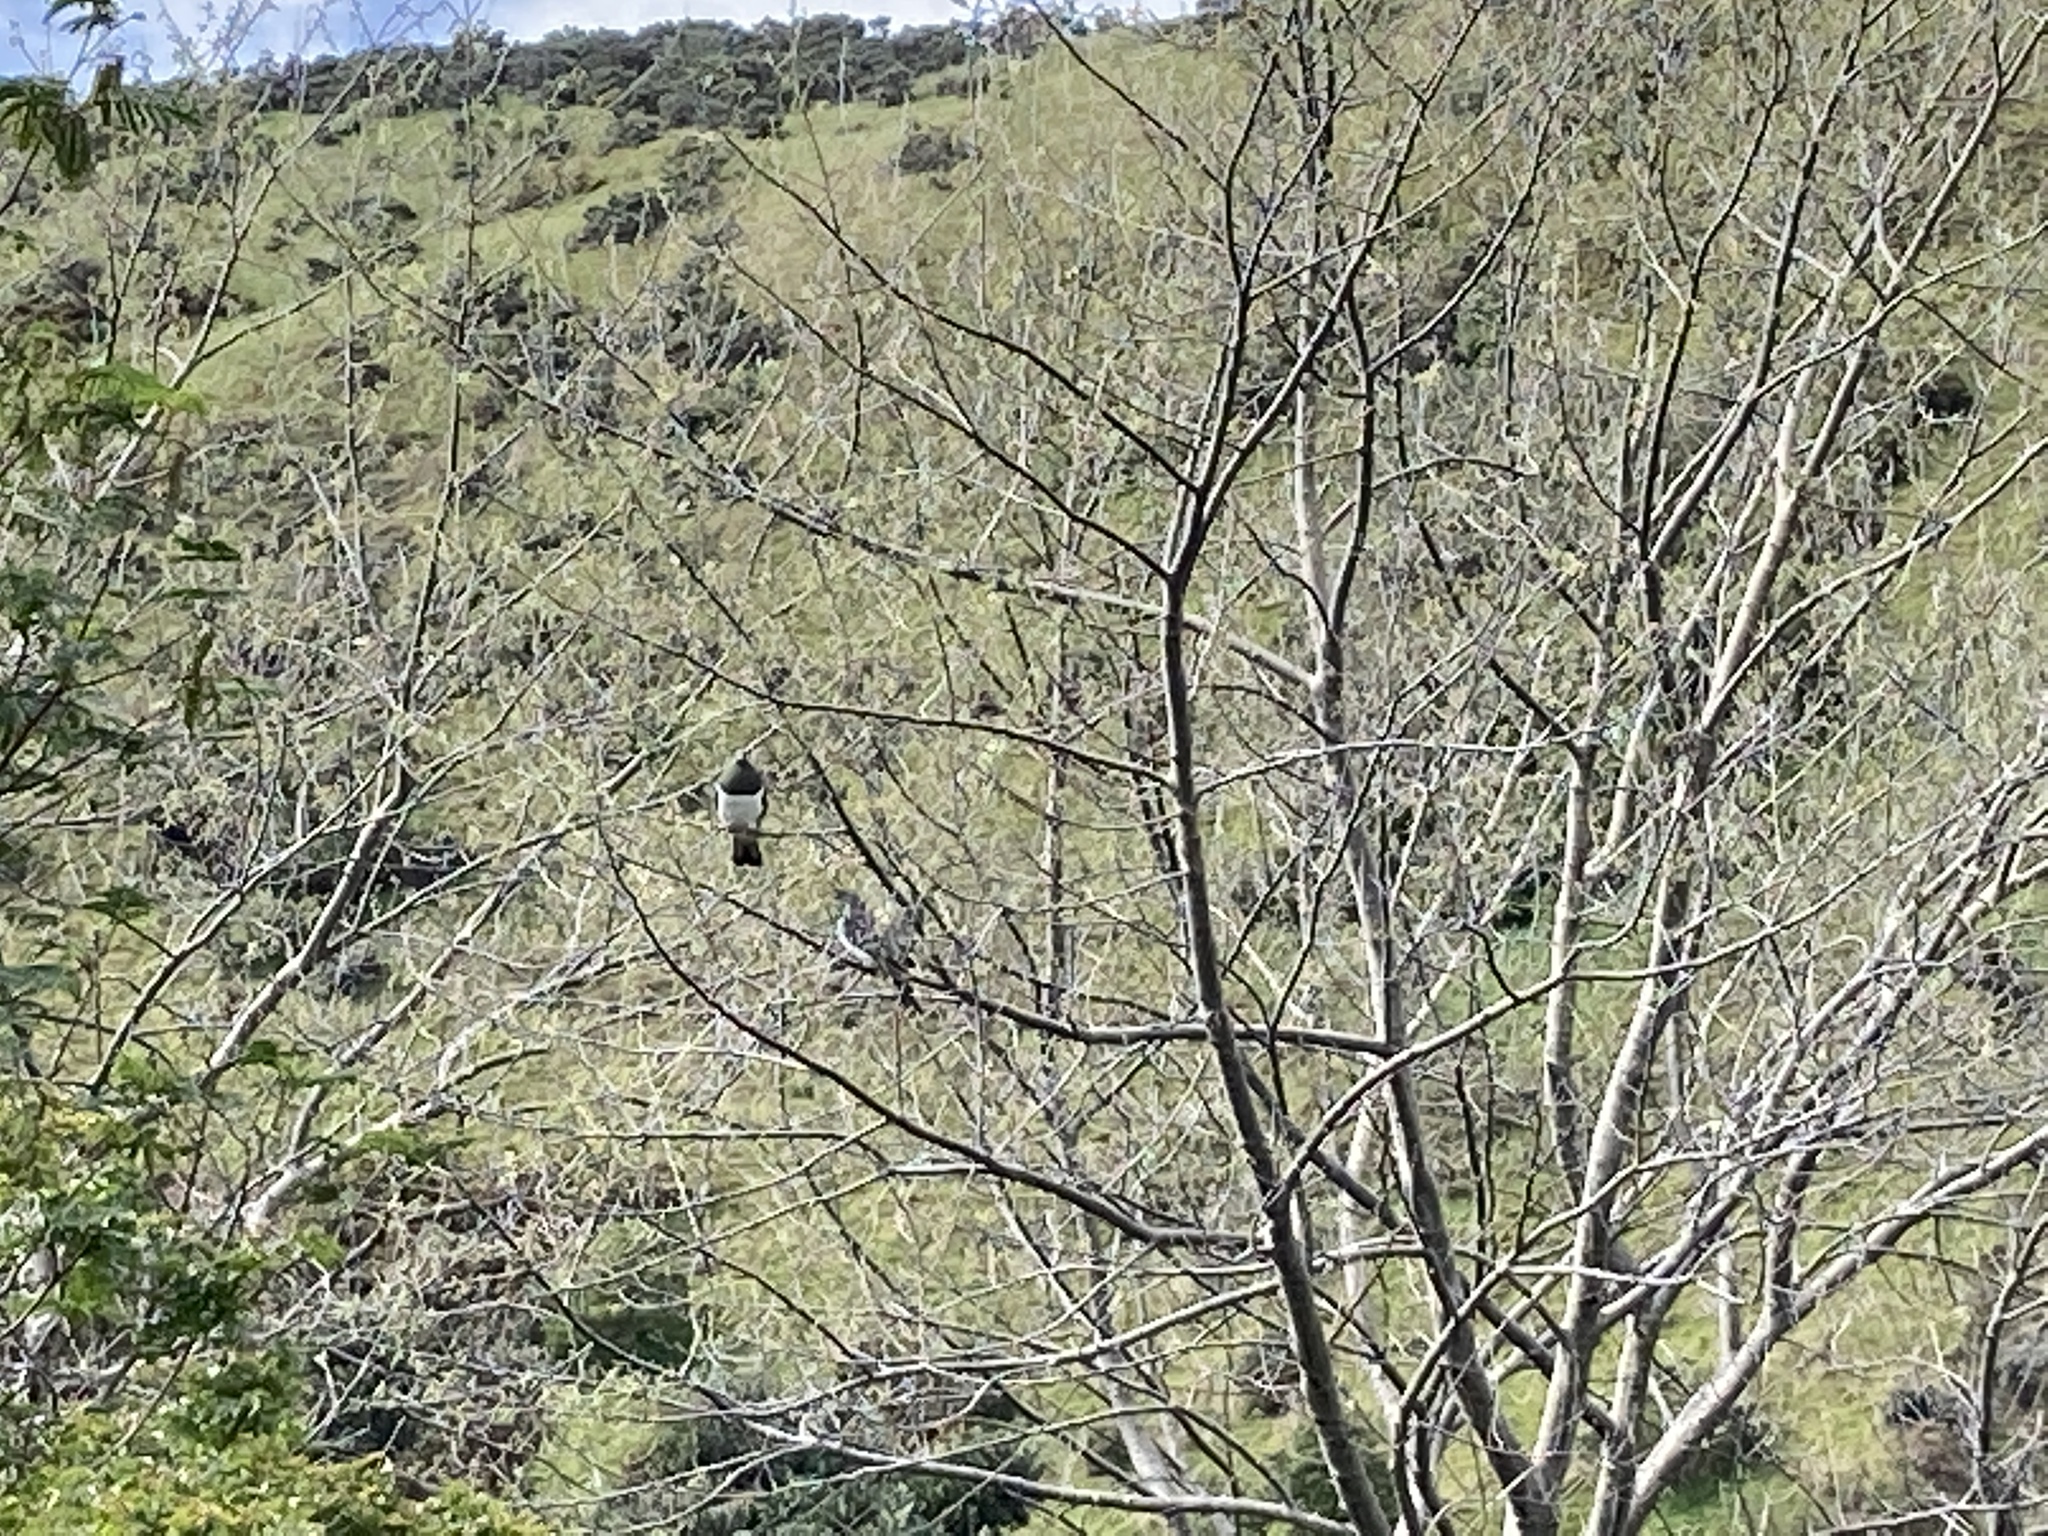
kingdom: Animalia
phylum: Chordata
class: Aves
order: Columbiformes
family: Columbidae
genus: Hemiphaga
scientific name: Hemiphaga novaeseelandiae
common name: New zealand pigeon
